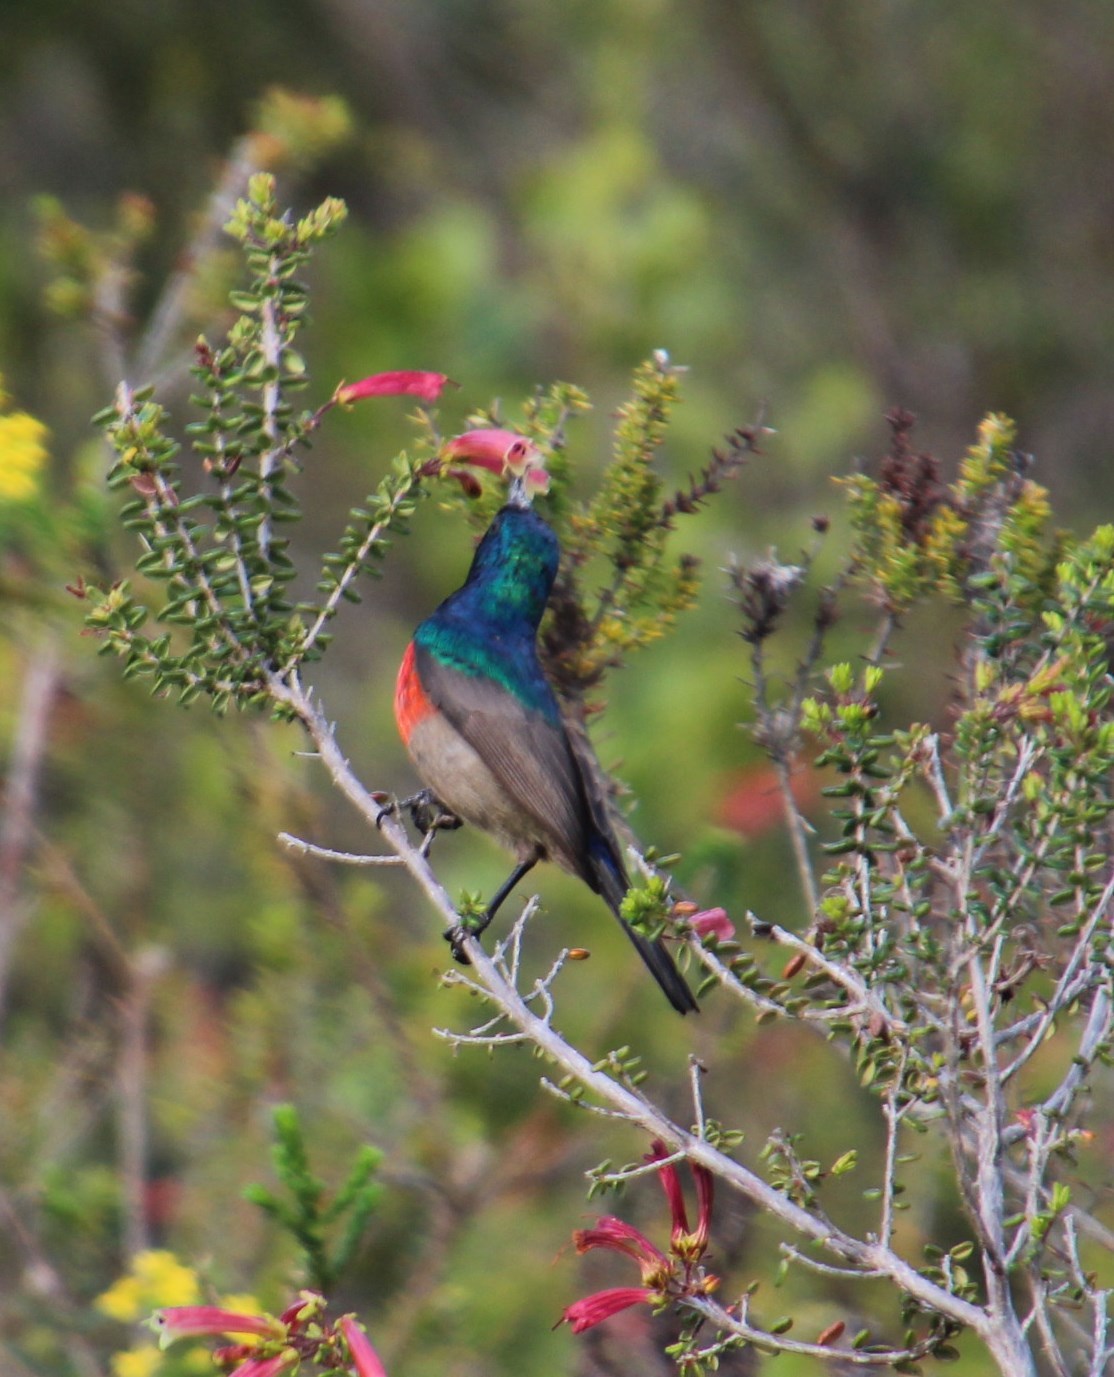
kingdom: Animalia
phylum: Chordata
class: Aves
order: Passeriformes
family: Nectariniidae
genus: Cinnyris
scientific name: Cinnyris afer
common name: Greater double-collared sunbird
